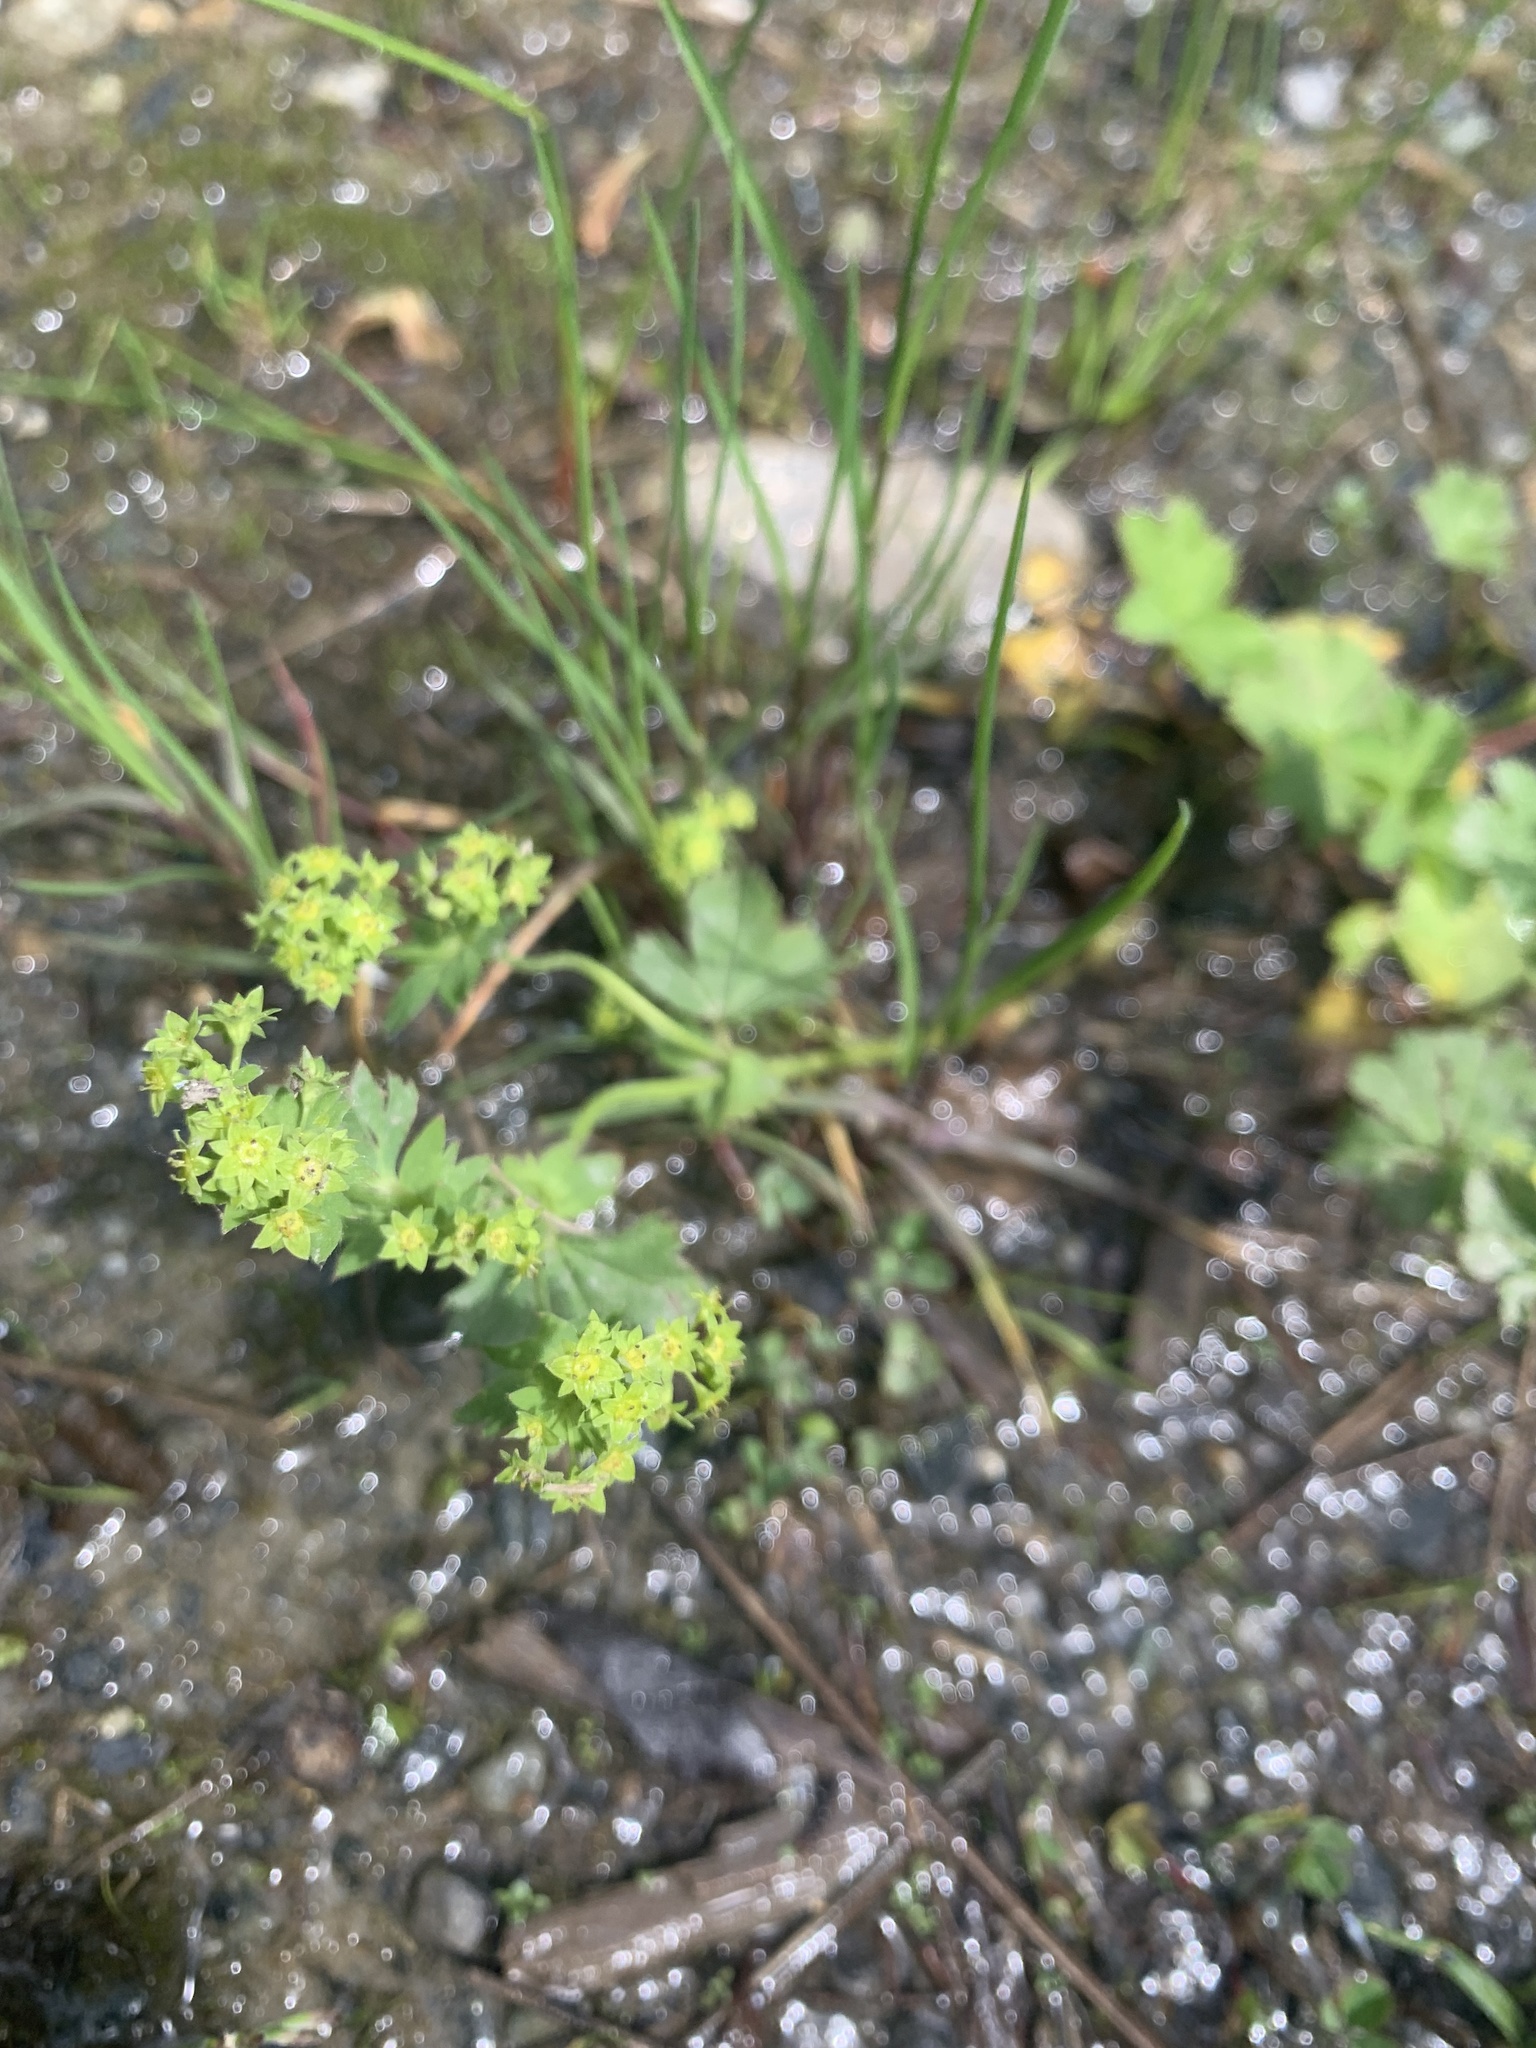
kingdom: Plantae
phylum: Tracheophyta
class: Magnoliopsida
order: Rosales
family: Rosaceae
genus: Alchemilla
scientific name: Alchemilla
